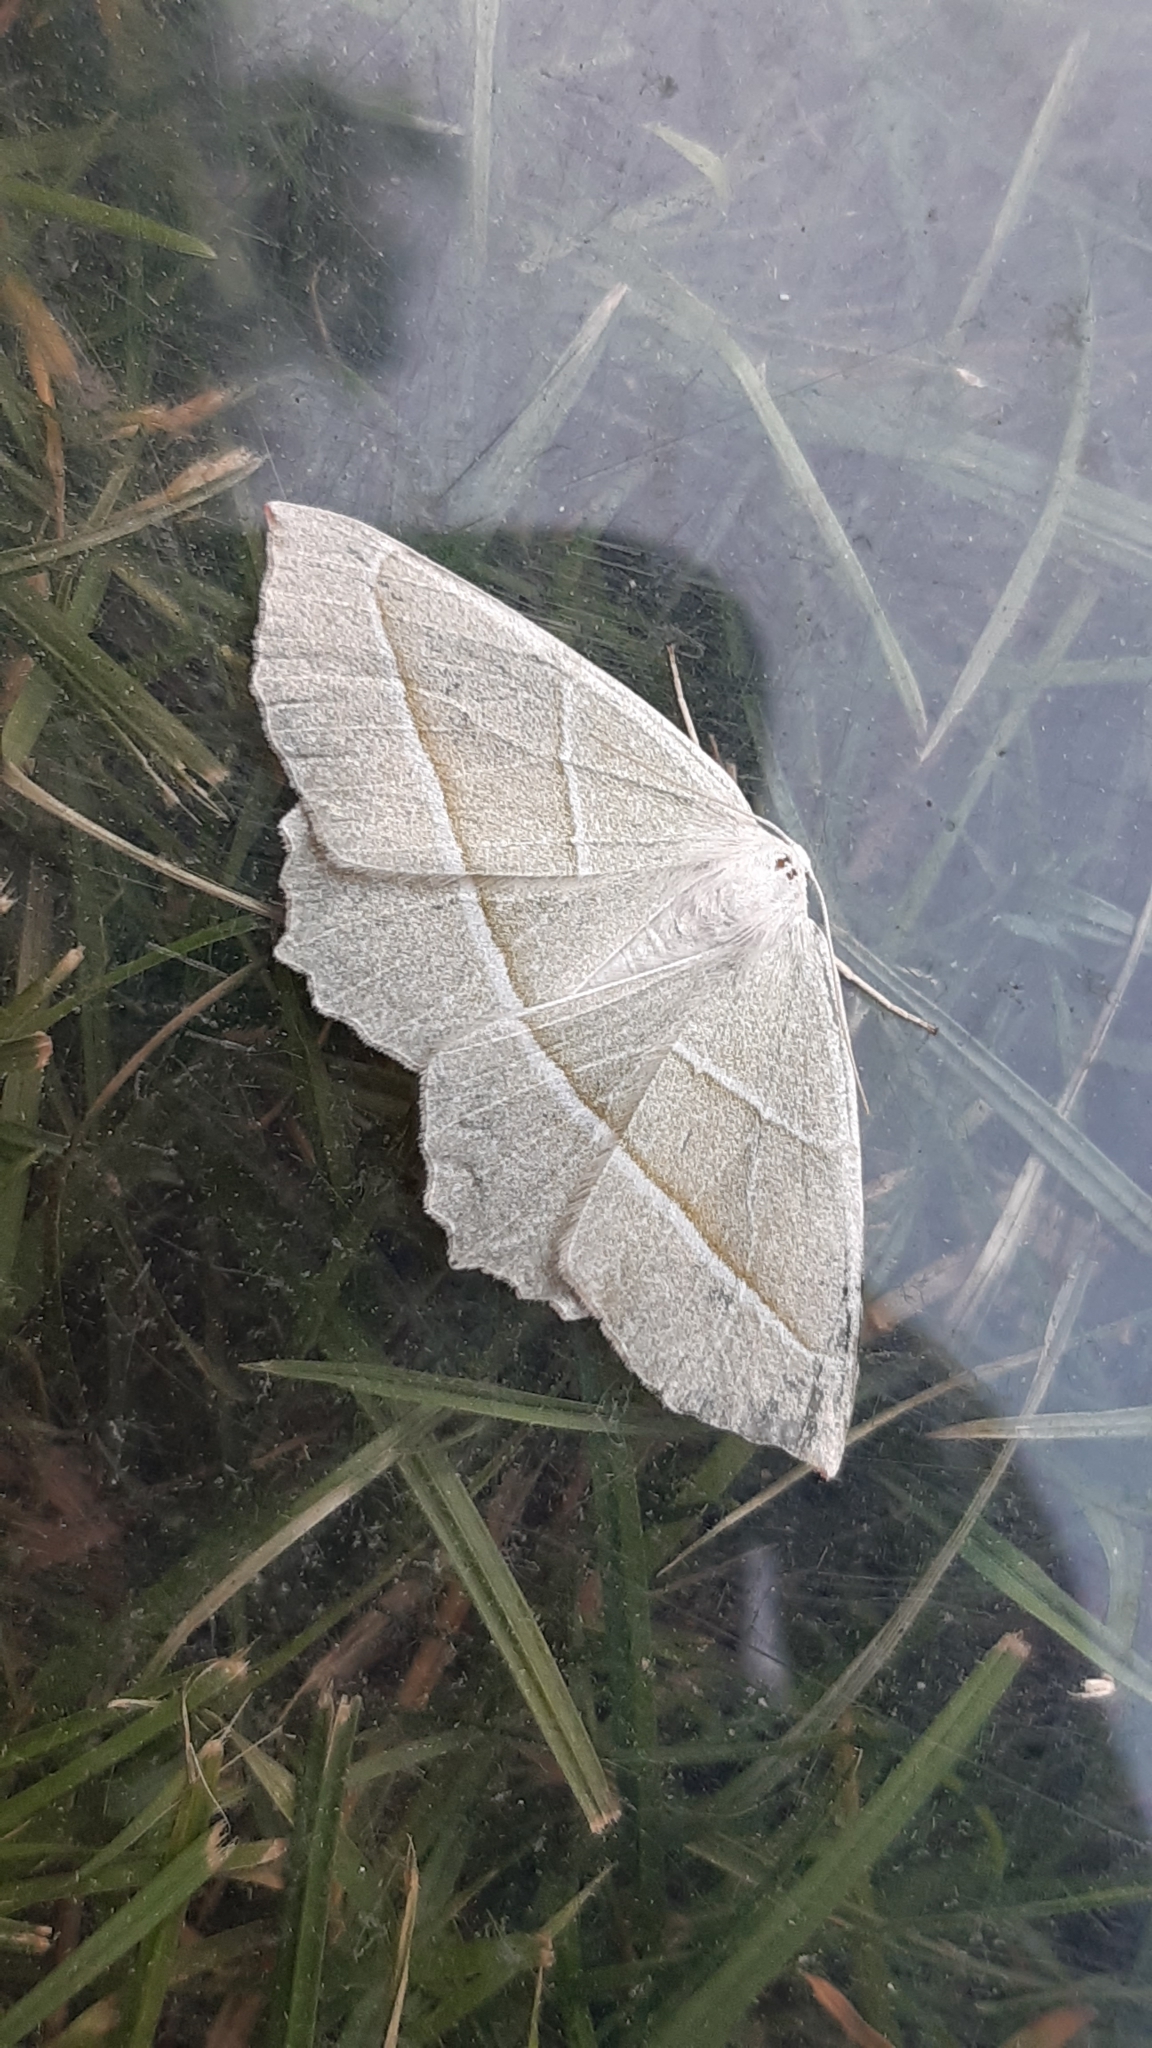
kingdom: Animalia
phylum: Arthropoda
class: Insecta
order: Lepidoptera
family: Geometridae
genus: Campaea
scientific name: Campaea margaritaria
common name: Light emerald
